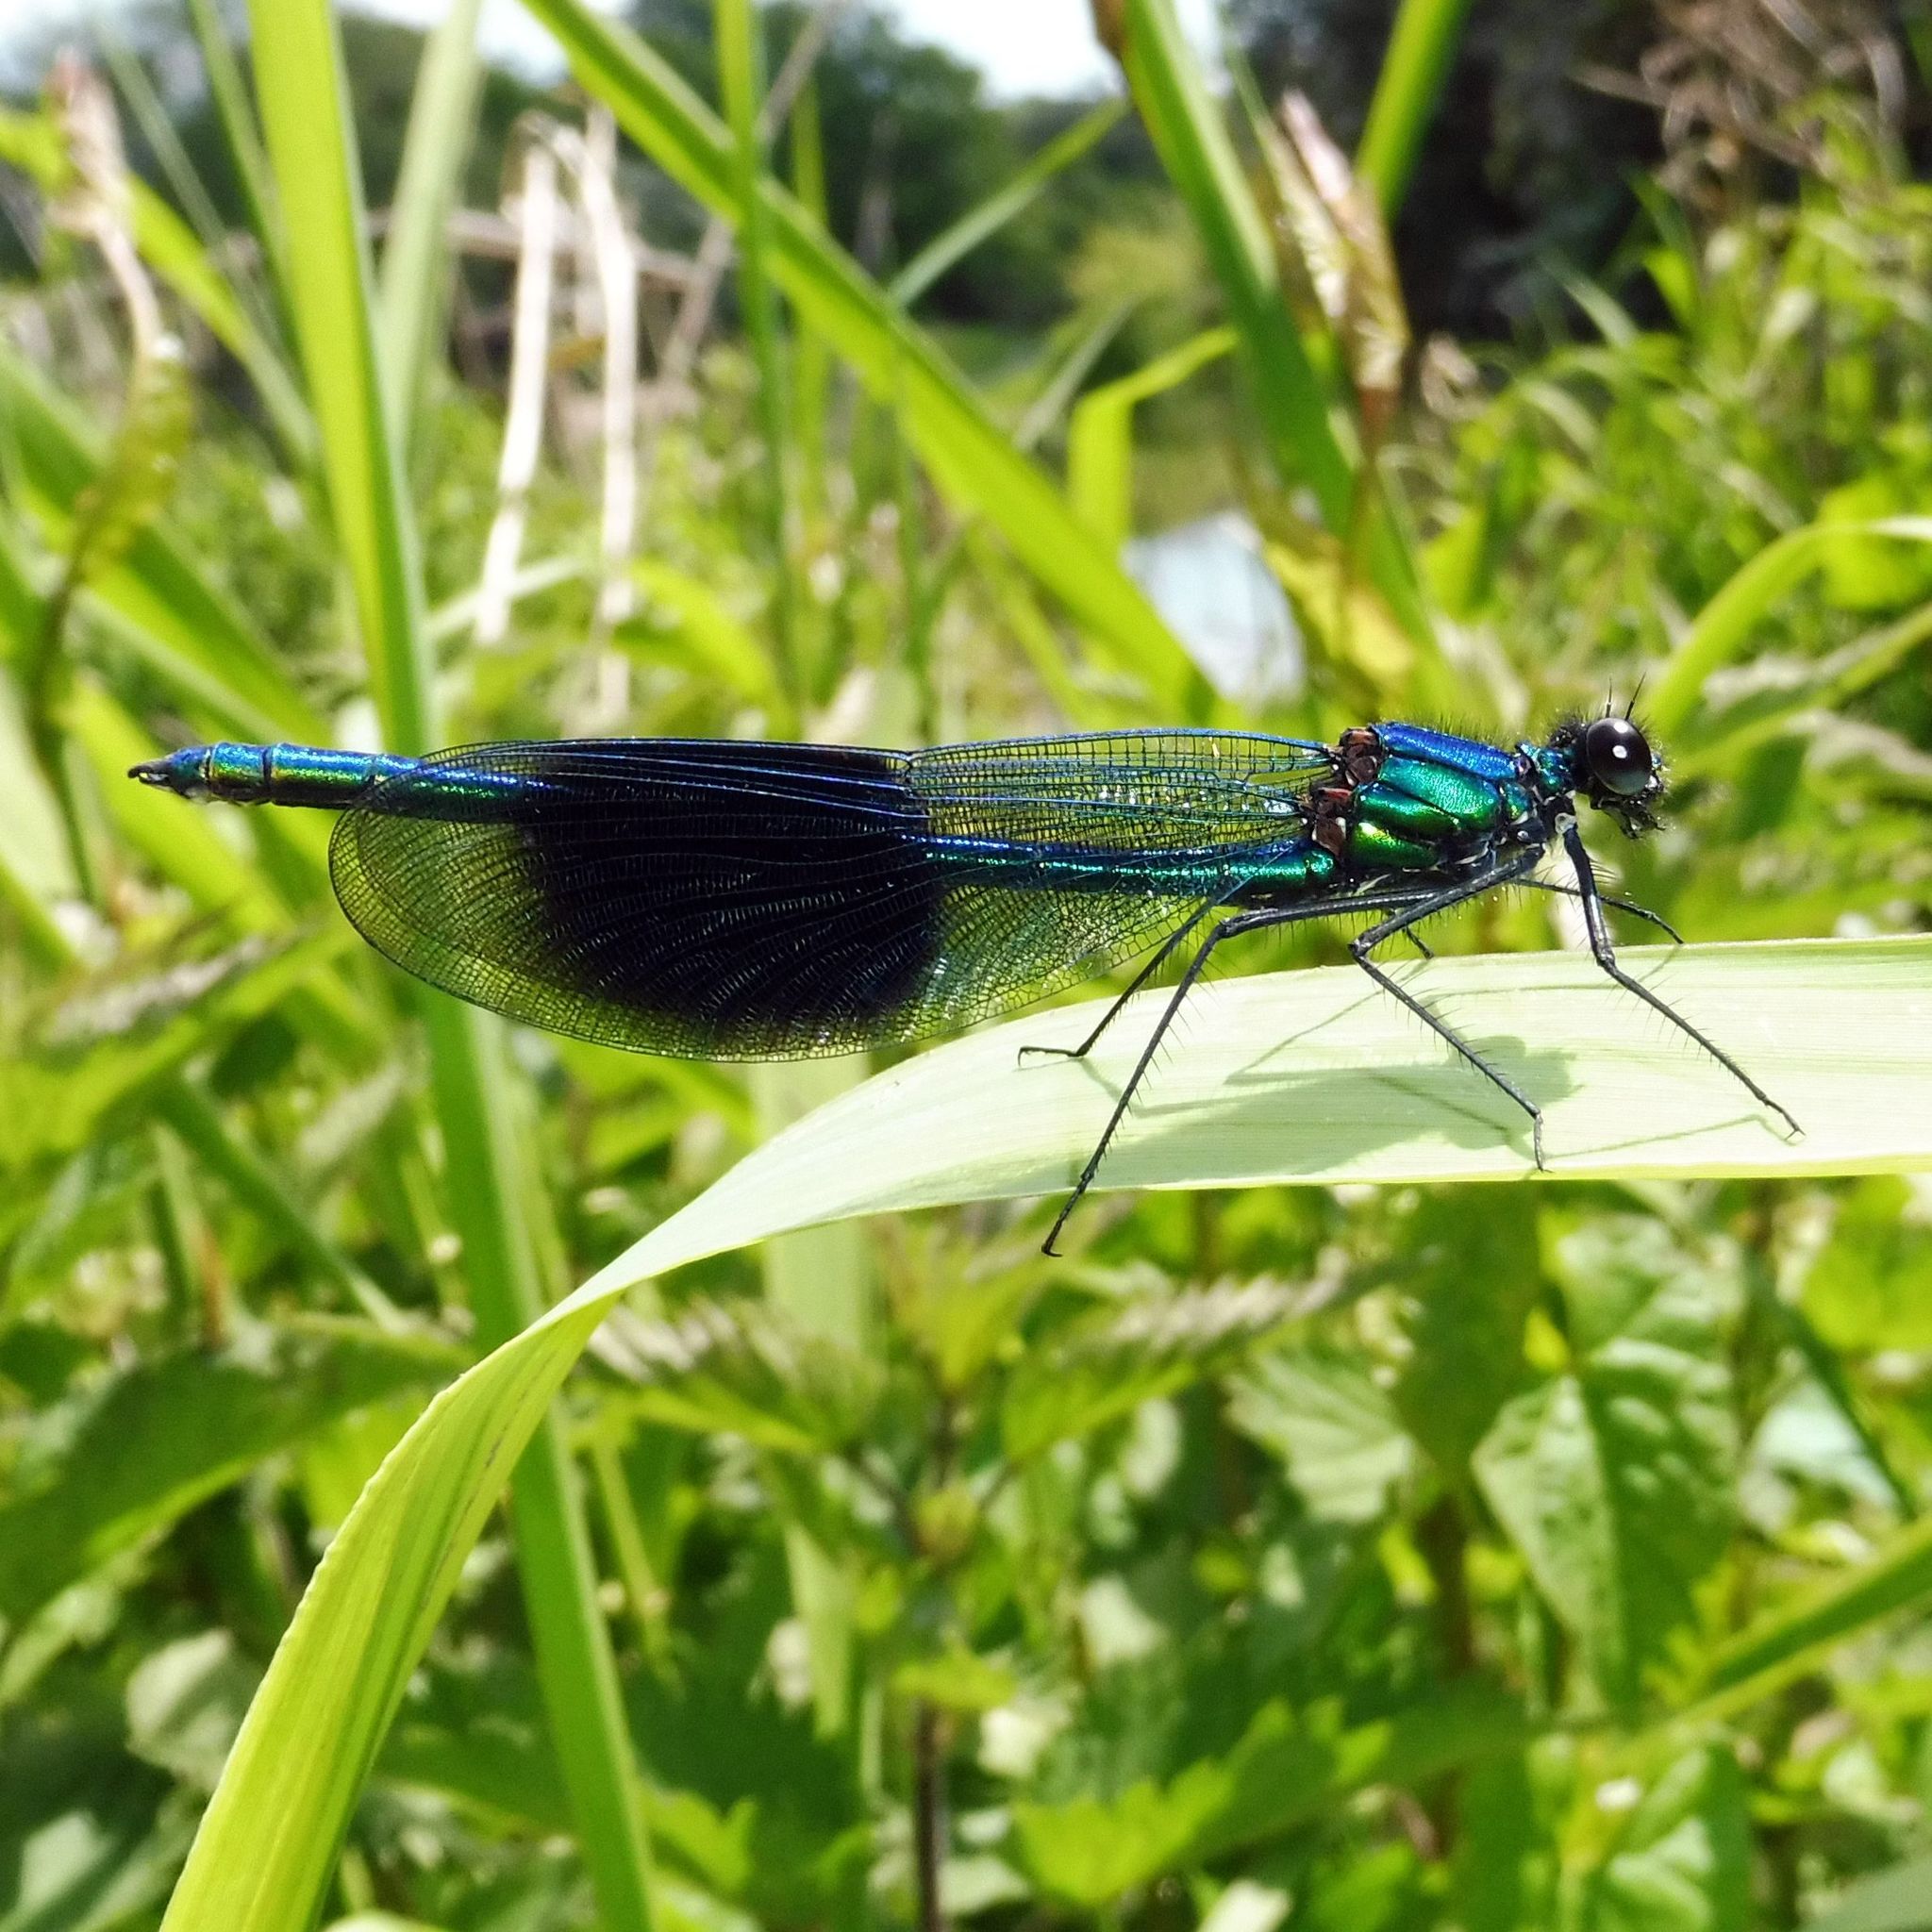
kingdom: Animalia
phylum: Arthropoda
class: Insecta
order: Odonata
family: Calopterygidae
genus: Calopteryx
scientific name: Calopteryx splendens
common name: Banded demoiselle
